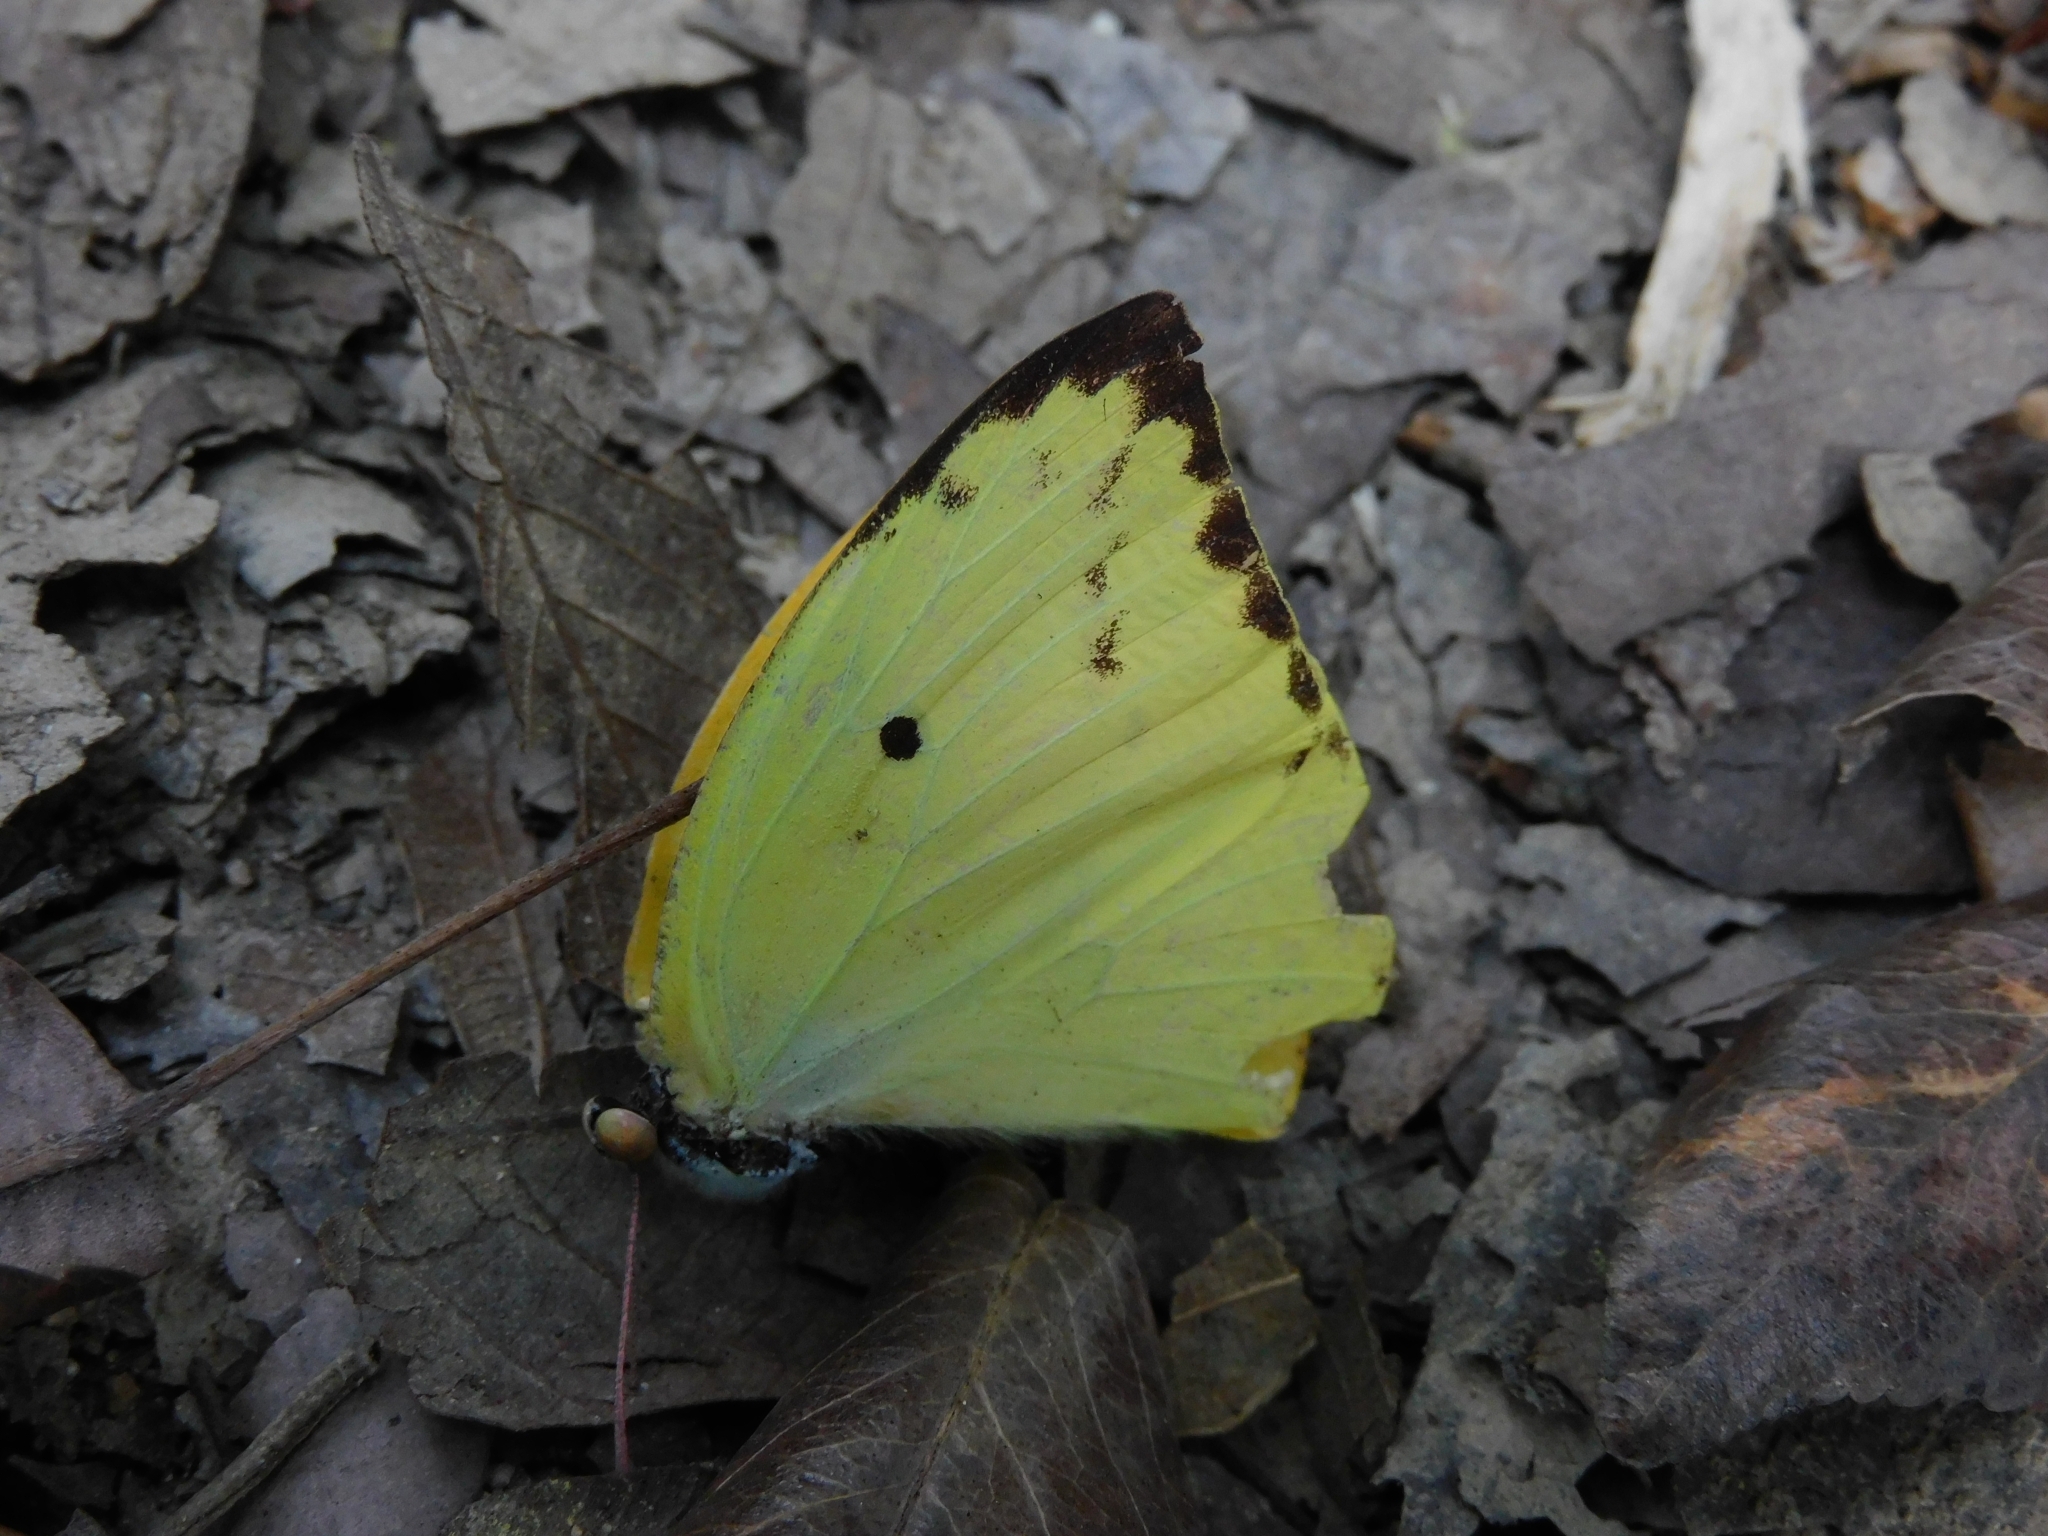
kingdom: Animalia
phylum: Arthropoda
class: Insecta
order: Lepidoptera
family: Pieridae
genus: Catopsilia
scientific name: Catopsilia pomona
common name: Common emigrant
